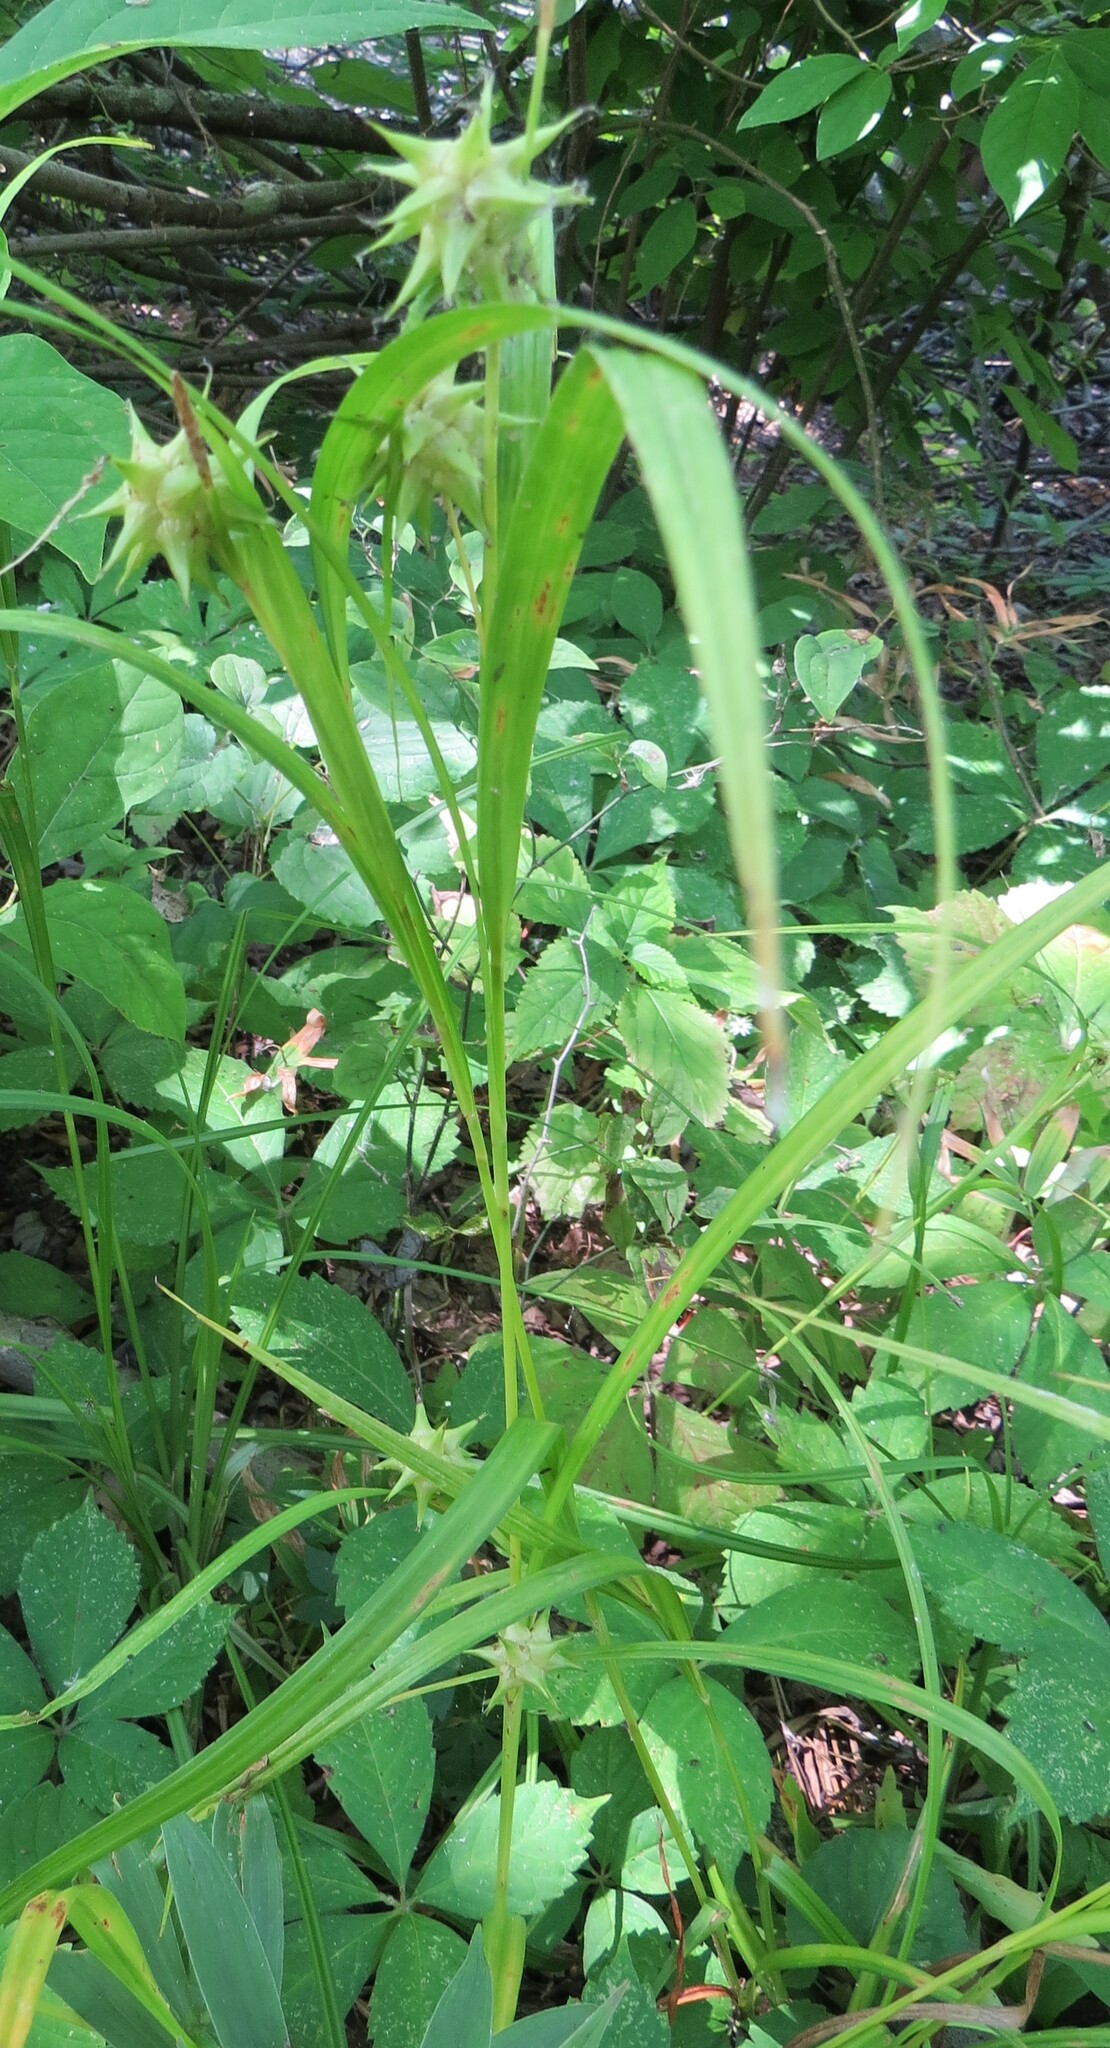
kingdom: Plantae
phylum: Tracheophyta
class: Liliopsida
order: Poales
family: Cyperaceae
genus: Carex
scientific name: Carex grayi
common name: Asa gray's sedge
